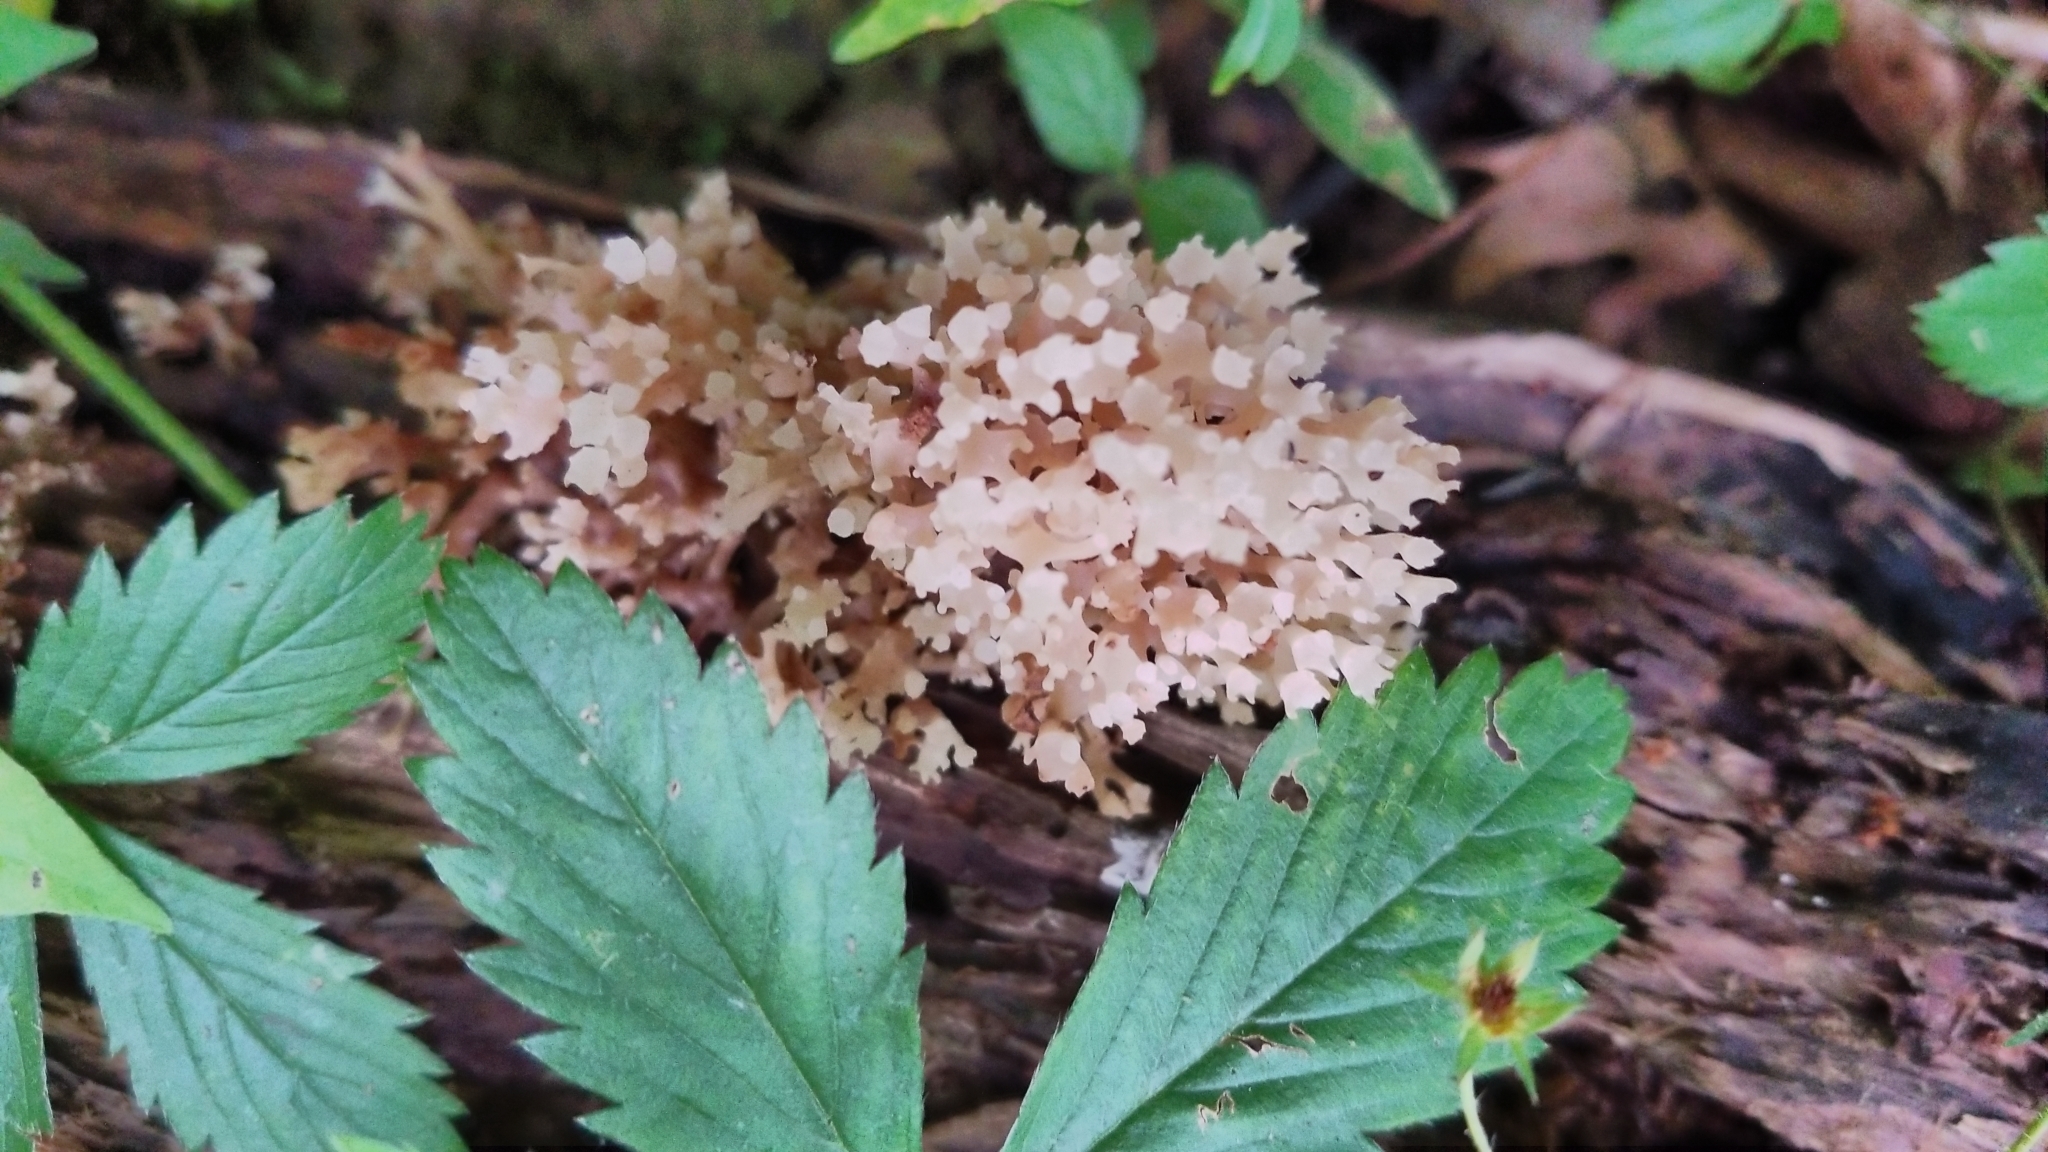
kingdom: Fungi
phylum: Basidiomycota
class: Agaricomycetes
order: Russulales
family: Auriscalpiaceae
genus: Artomyces
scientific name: Artomyces pyxidatus
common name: Crown-tipped coral fungus
